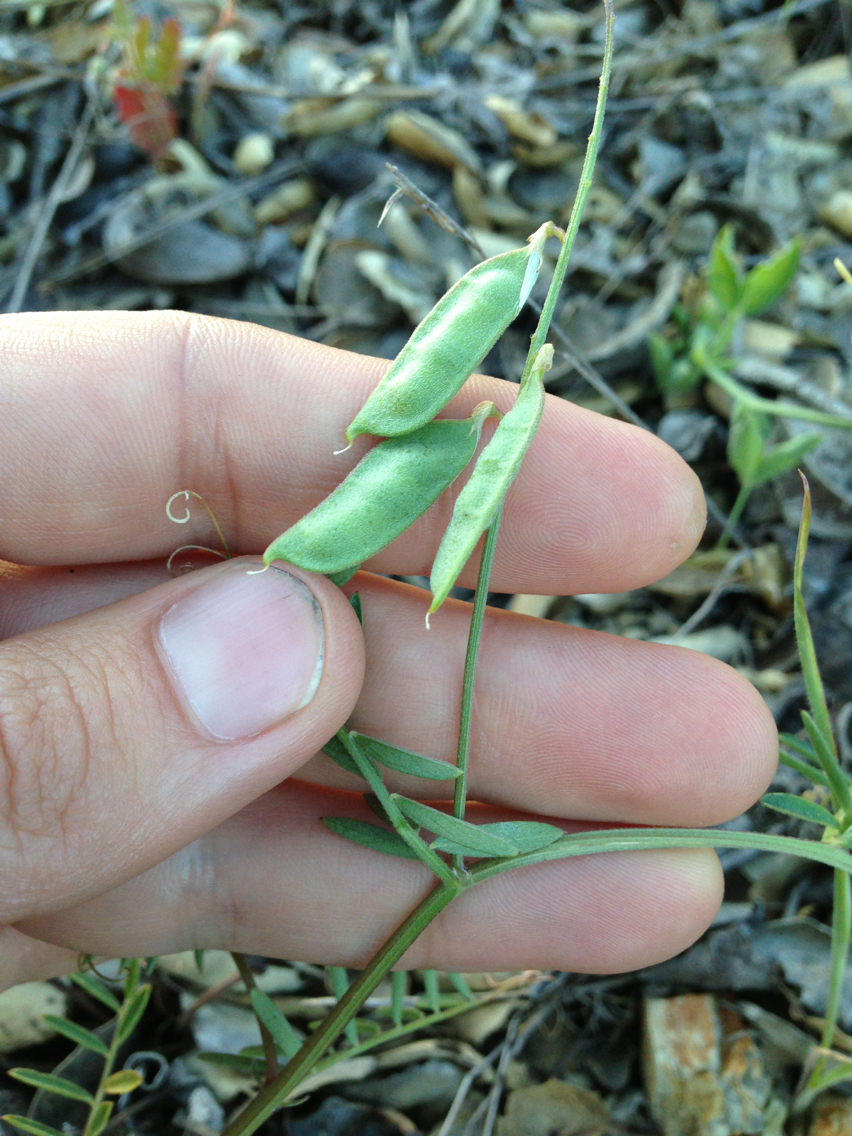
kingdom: Plantae
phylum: Tracheophyta
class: Magnoliopsida
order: Fabales
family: Fabaceae
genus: Vicia
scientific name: Vicia villosa
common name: Fodder vetch
